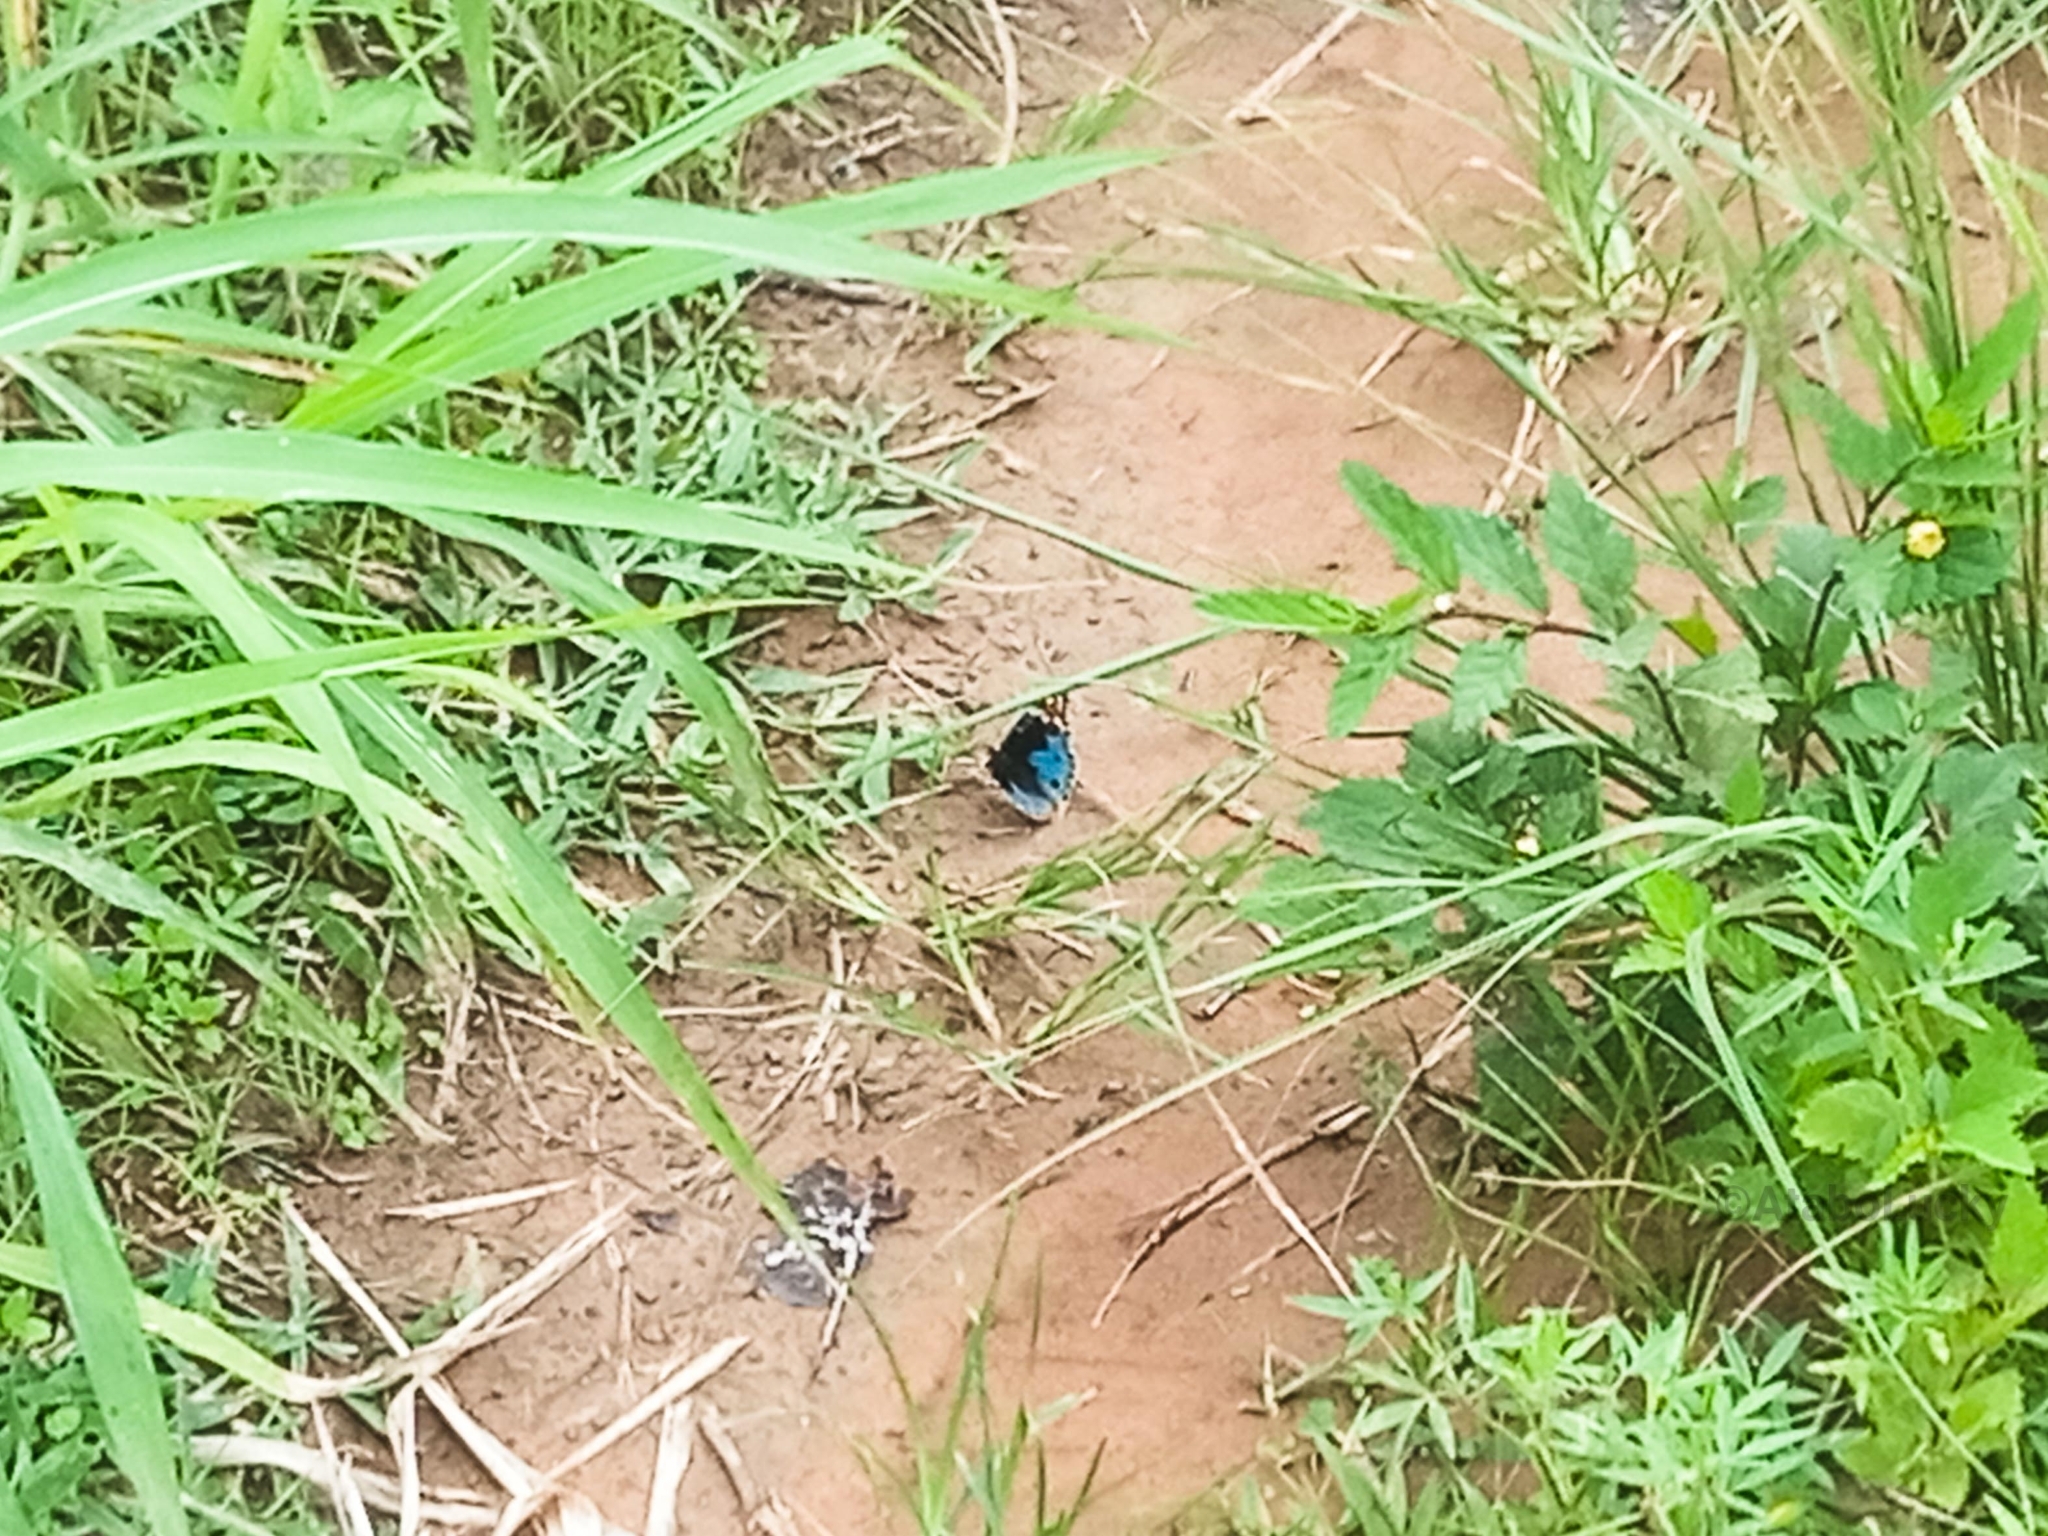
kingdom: Animalia
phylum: Arthropoda
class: Insecta
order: Lepidoptera
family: Nymphalidae
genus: Junonia
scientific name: Junonia orithya
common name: Blue pansy
